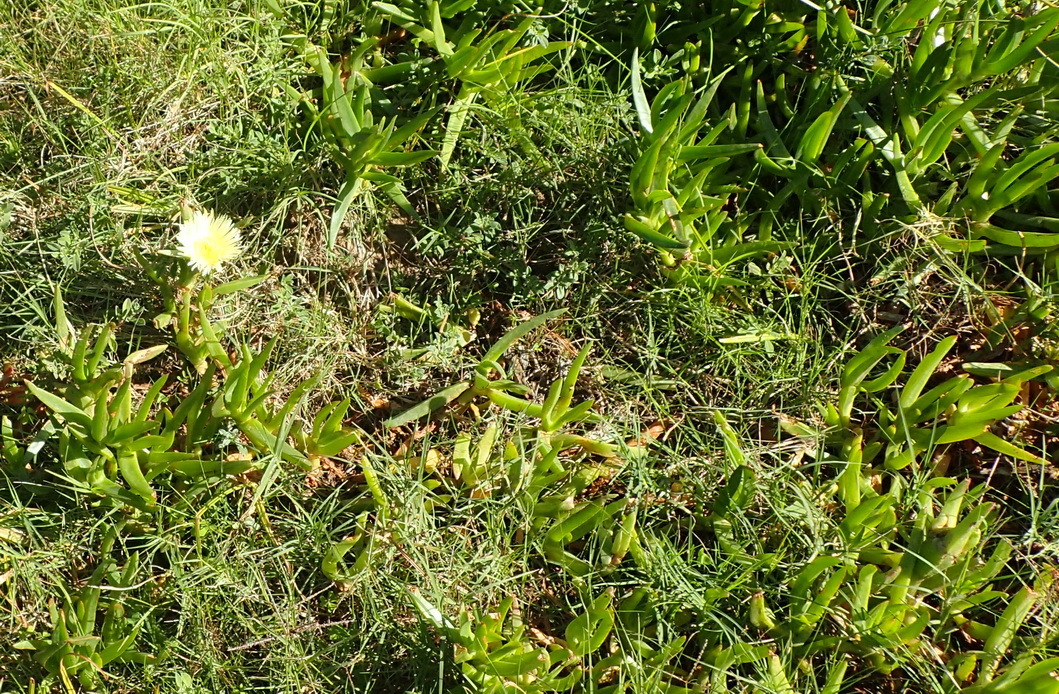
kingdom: Plantae
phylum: Tracheophyta
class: Magnoliopsida
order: Caryophyllales
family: Aizoaceae
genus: Carpobrotus
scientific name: Carpobrotus edulis
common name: Hottentot-fig
